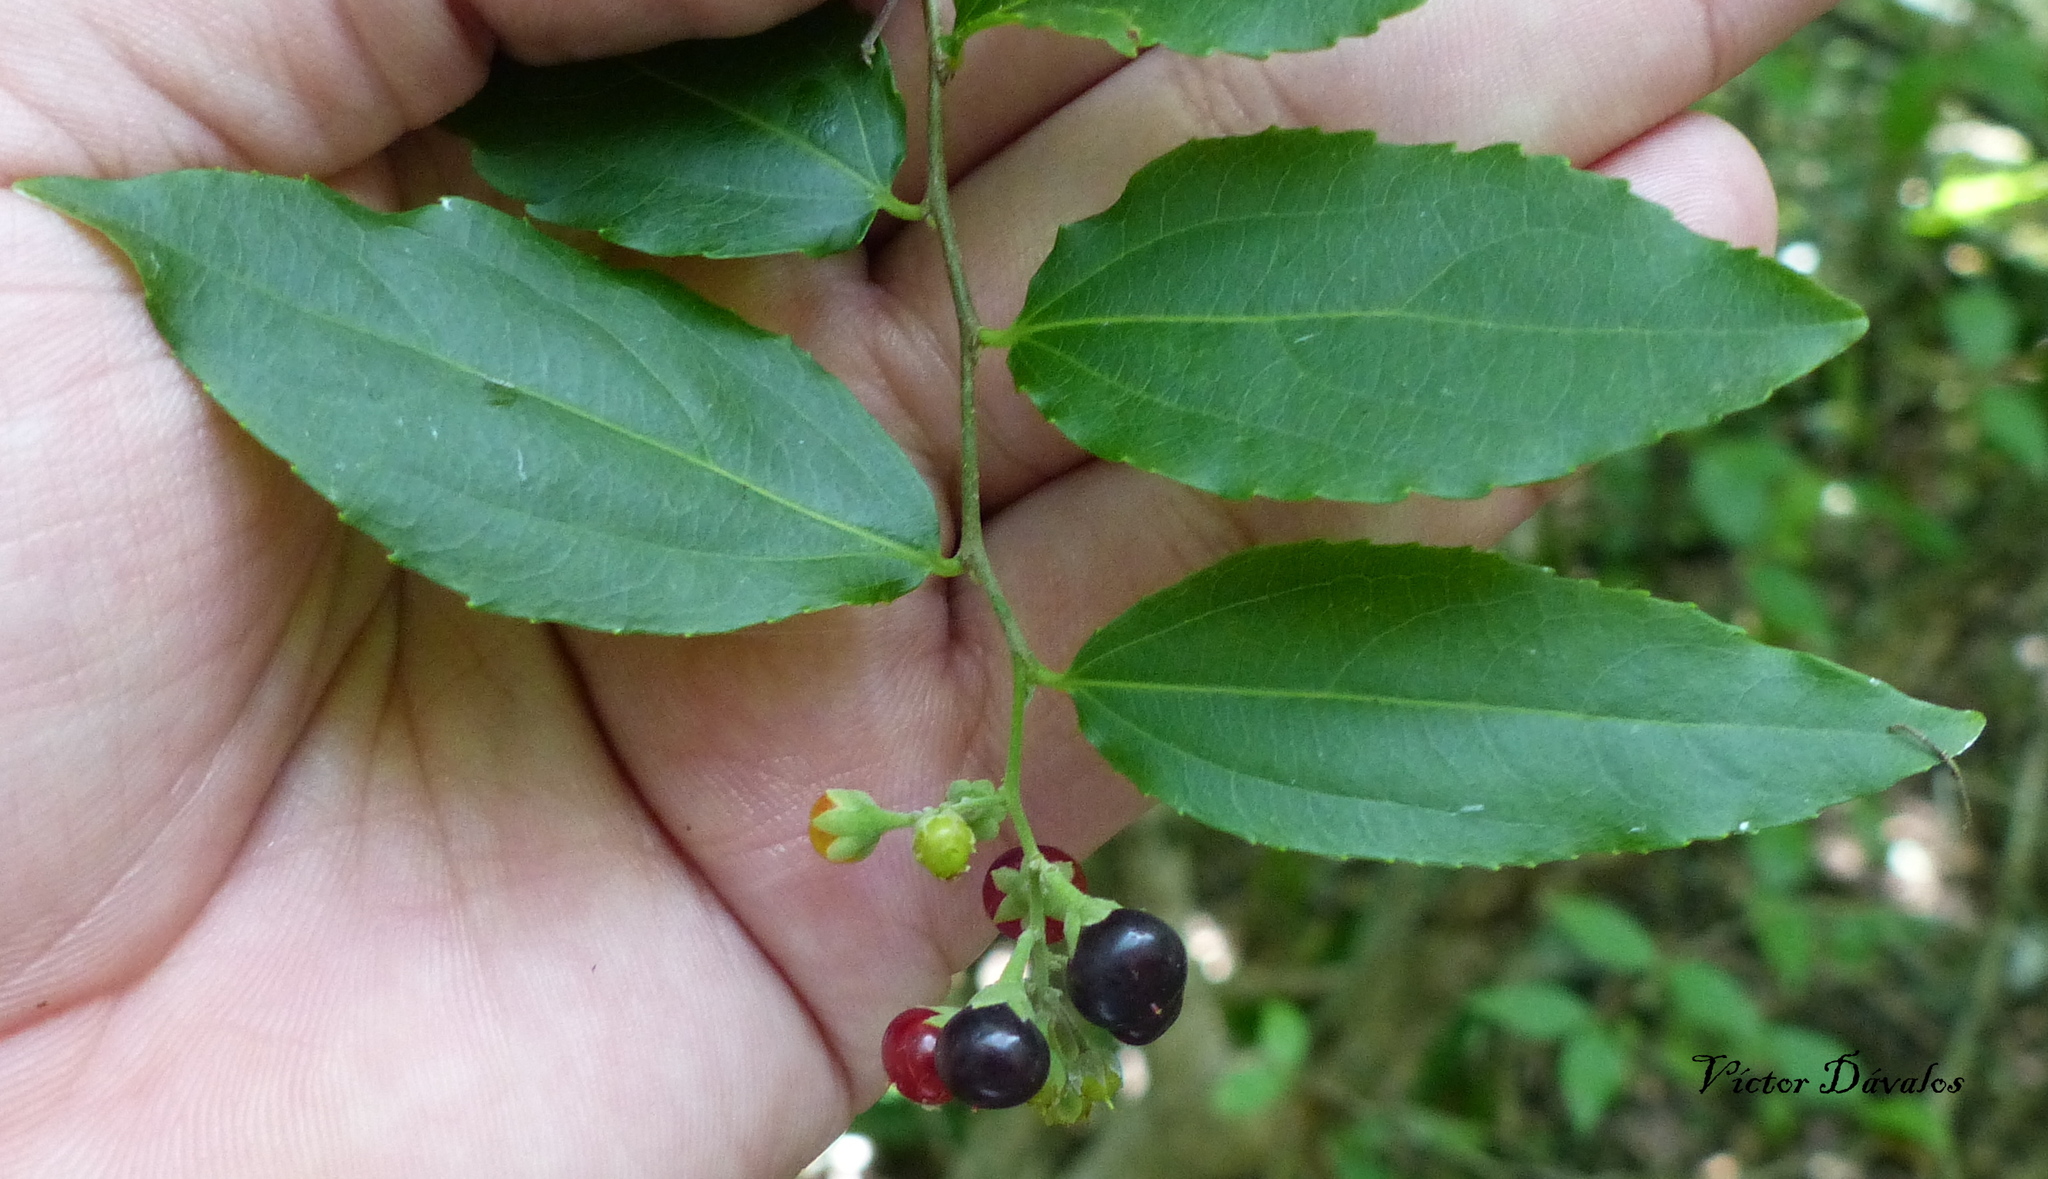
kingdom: Plantae
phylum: Tracheophyta
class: Magnoliopsida
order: Malpighiales
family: Salicaceae
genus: Banara
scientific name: Banara tomentosa
